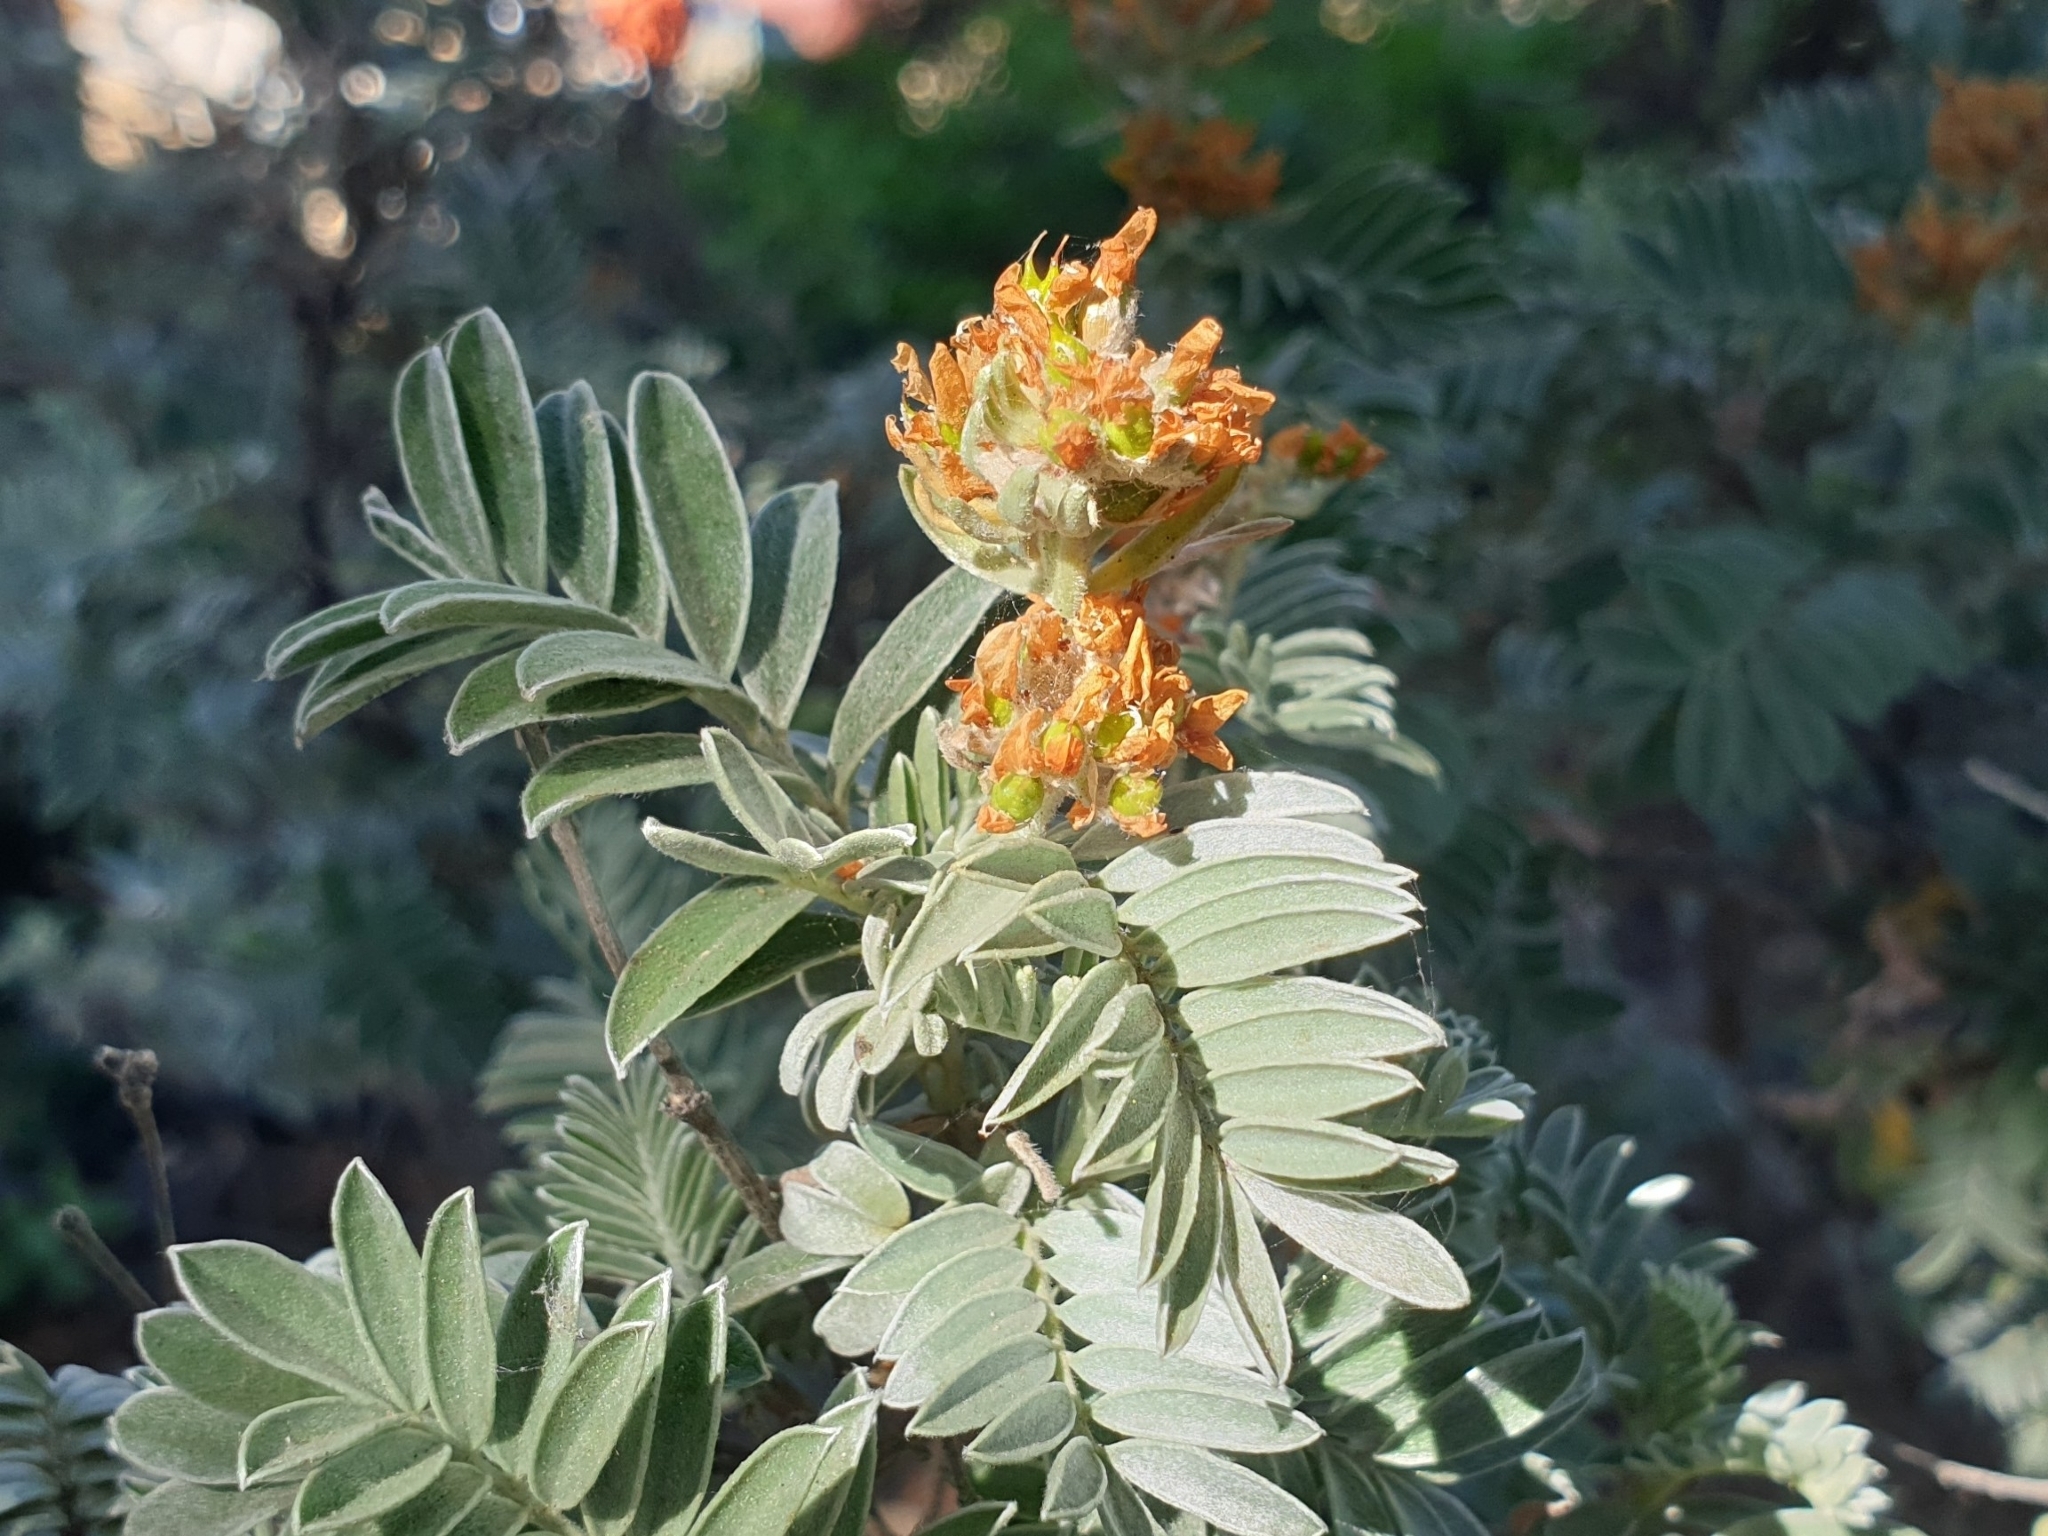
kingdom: Plantae
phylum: Tracheophyta
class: Magnoliopsida
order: Fabales
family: Fabaceae
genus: Anthyllis
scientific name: Anthyllis barba-jovis
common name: Jupiter's-beard
